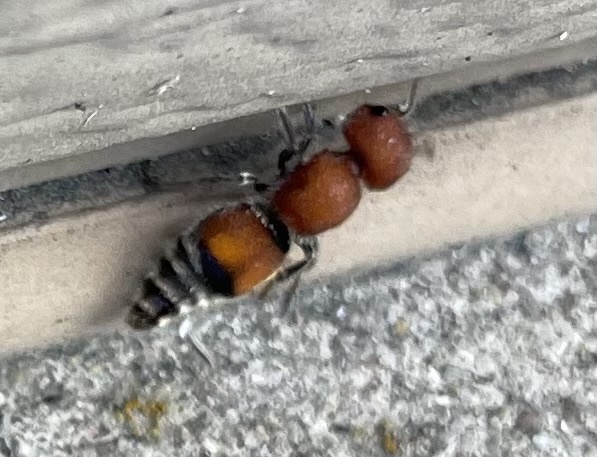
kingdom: Animalia
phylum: Arthropoda
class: Insecta
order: Hymenoptera
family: Mutillidae
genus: Pseudomethoca
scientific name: Pseudomethoca
